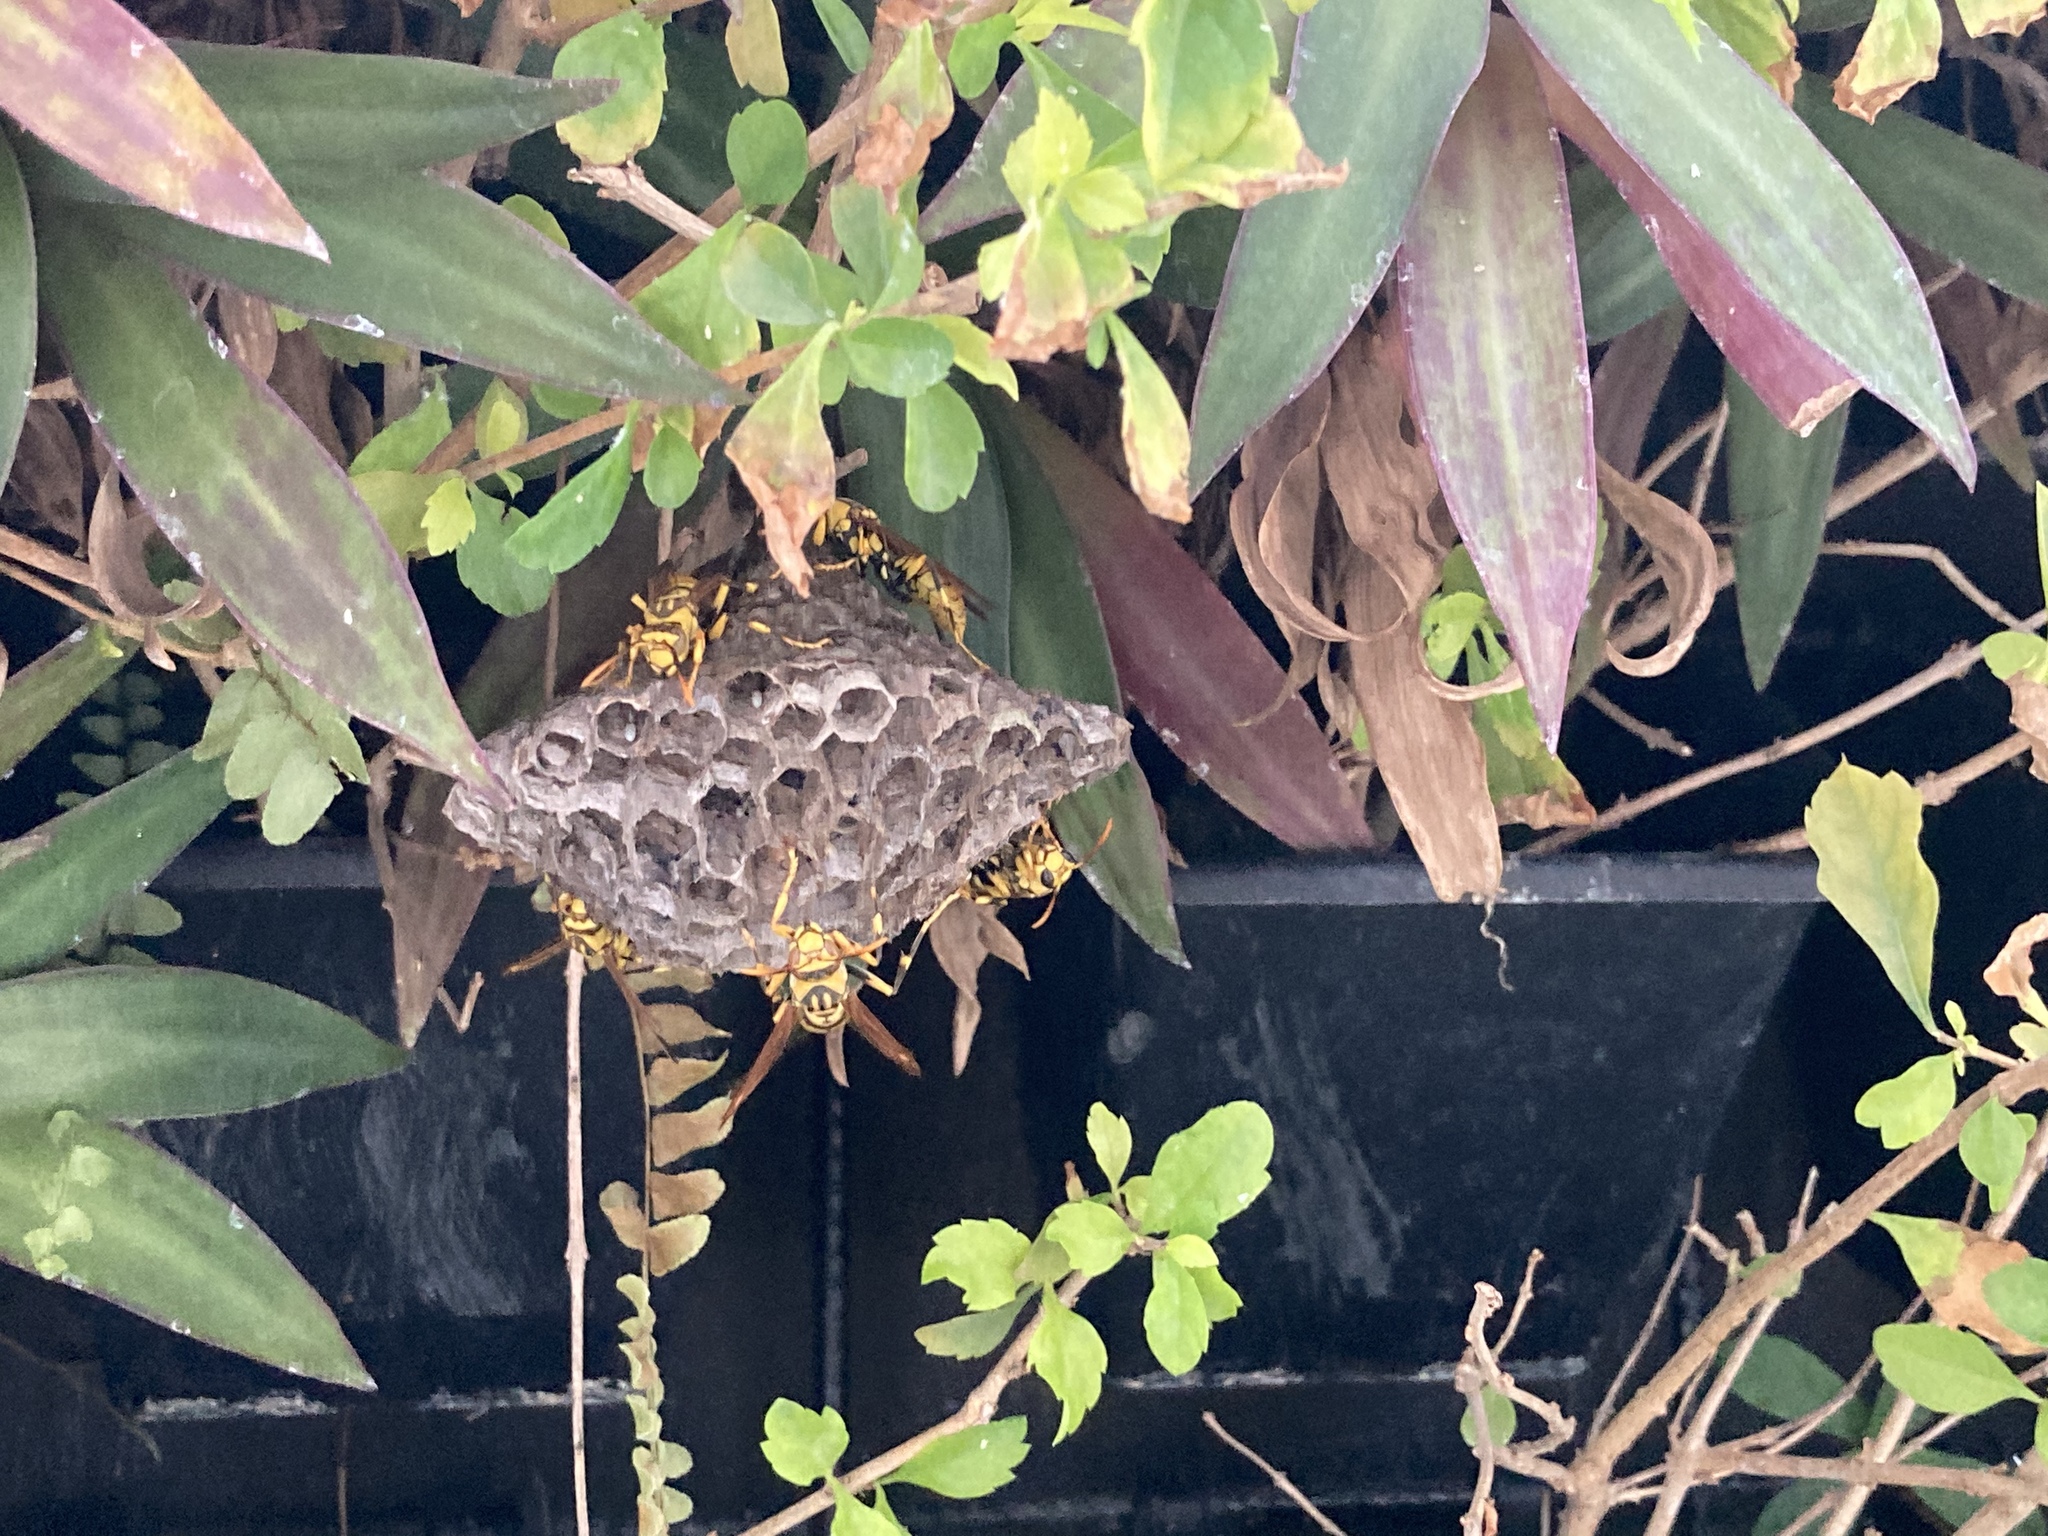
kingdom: Animalia
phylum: Arthropoda
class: Insecta
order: Hymenoptera
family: Eumenidae
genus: Polistes
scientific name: Polistes rothneyi
